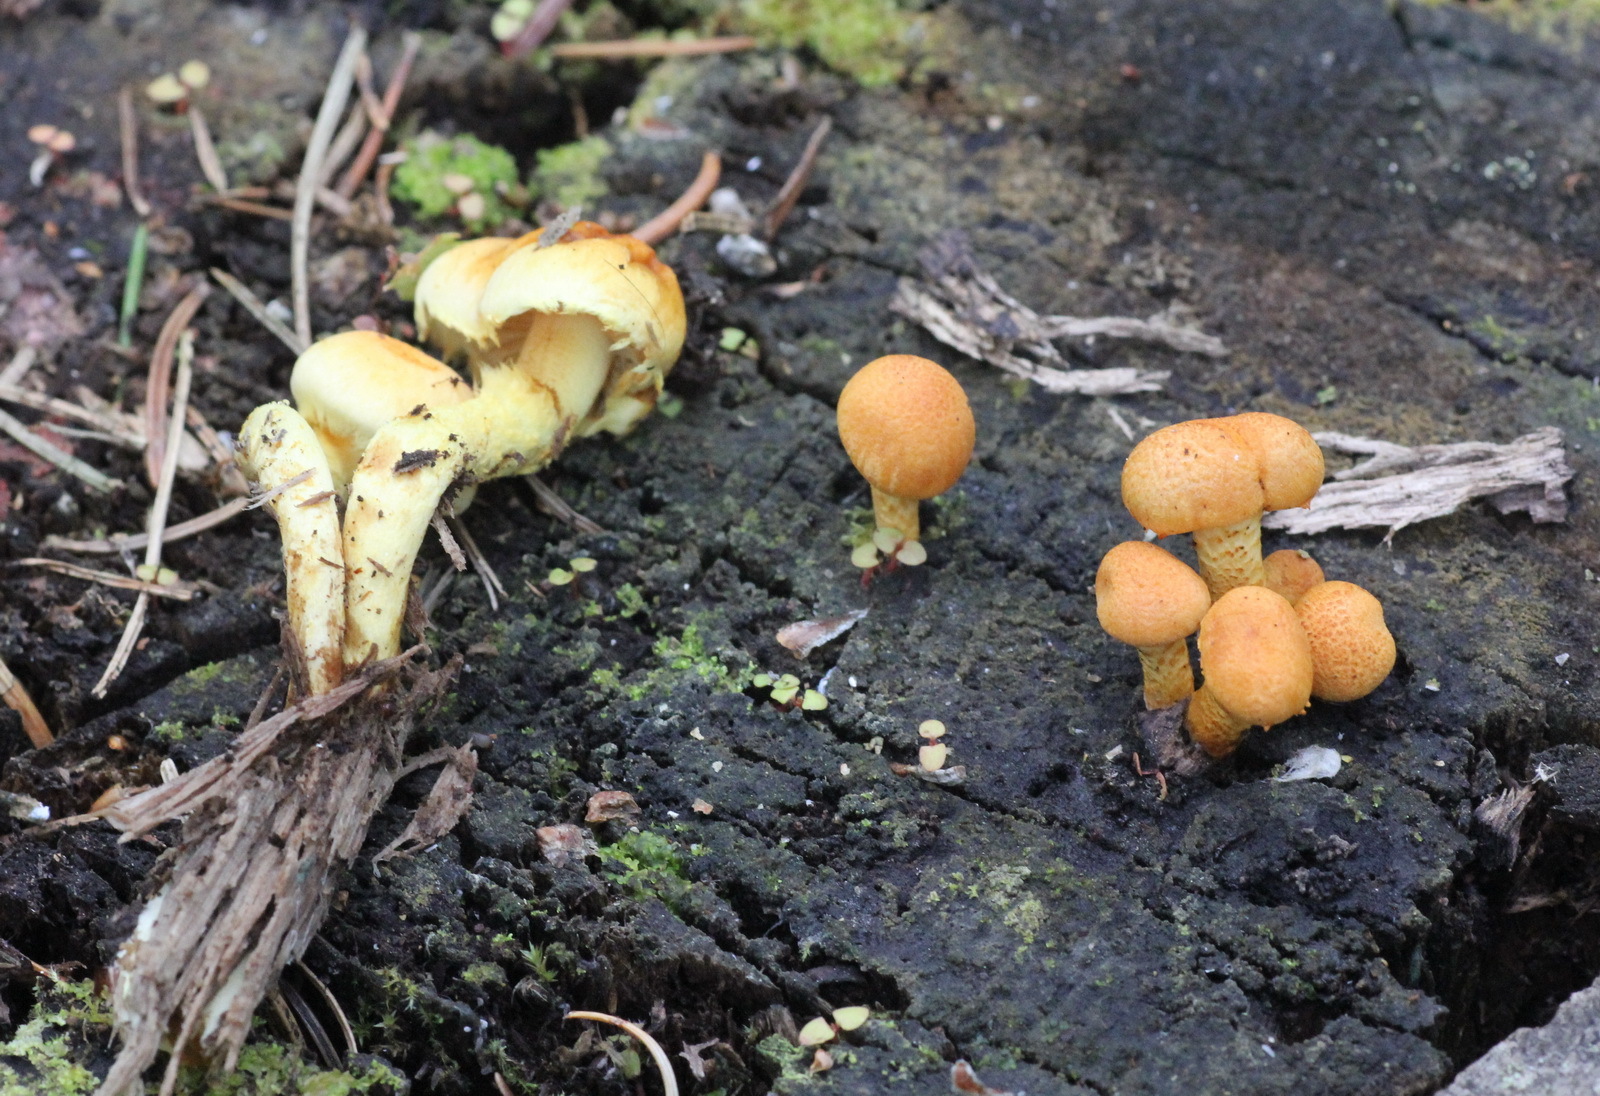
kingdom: Fungi
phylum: Basidiomycota
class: Agaricomycetes
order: Agaricales
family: Strophariaceae
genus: Pyrrhulomyces
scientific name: Pyrrhulomyces astragalinus
